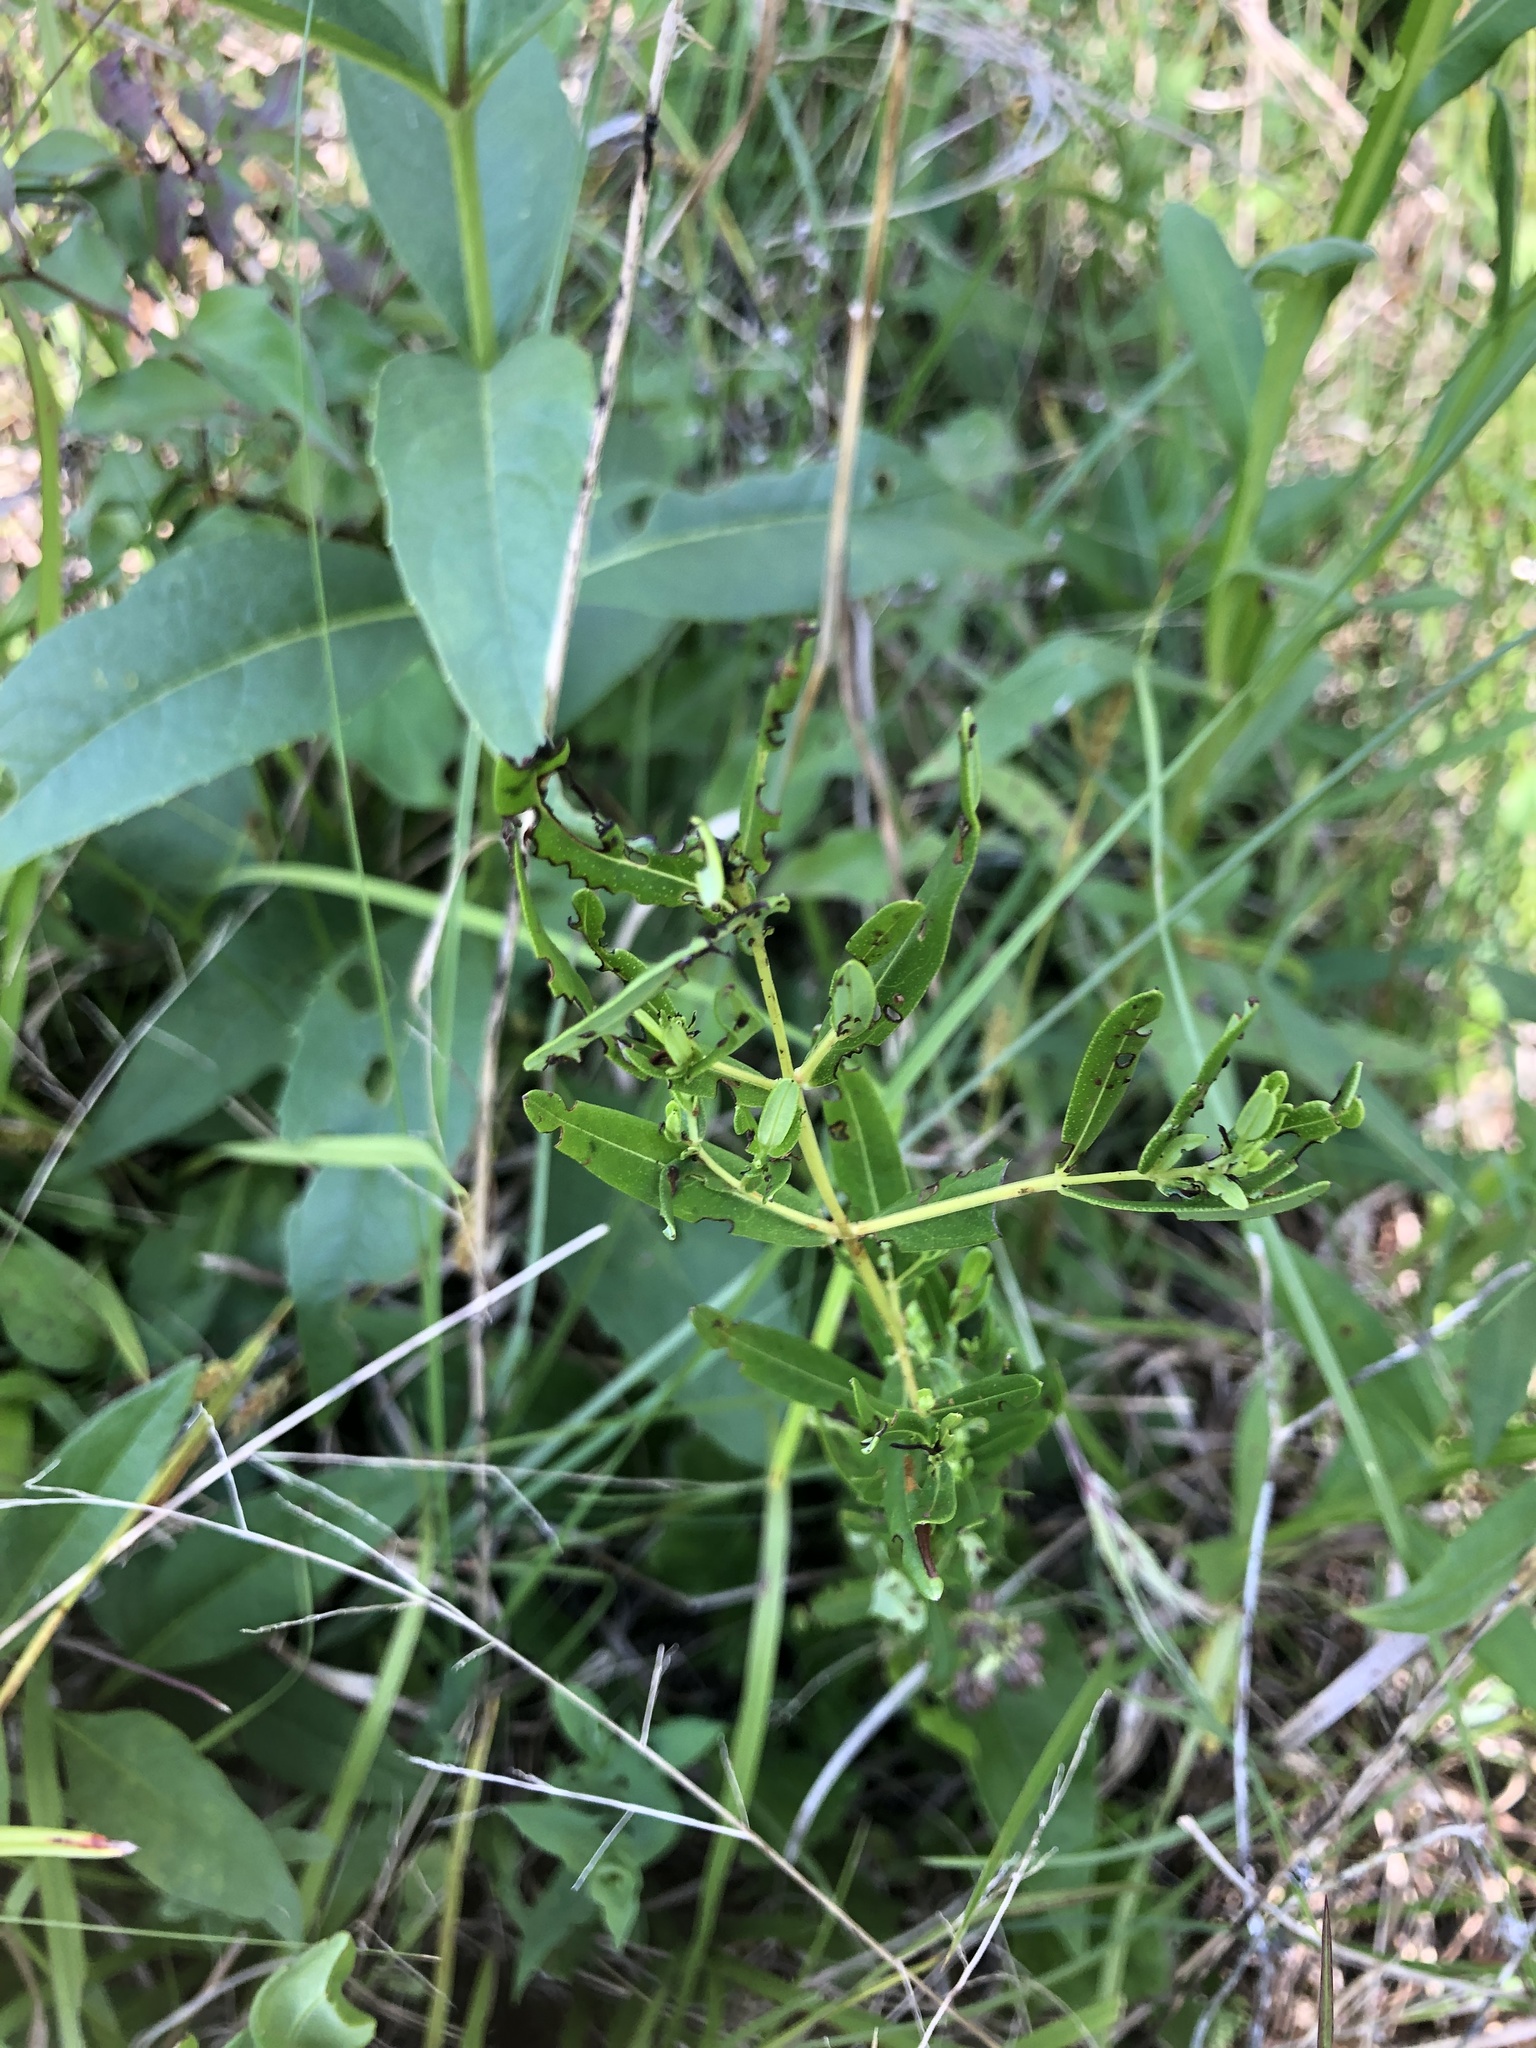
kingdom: Plantae
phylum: Tracheophyta
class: Magnoliopsida
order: Malpighiales
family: Hypericaceae
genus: Hypericum
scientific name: Hypericum sphaerocarpum
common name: Round-fruited st. john's-wort
